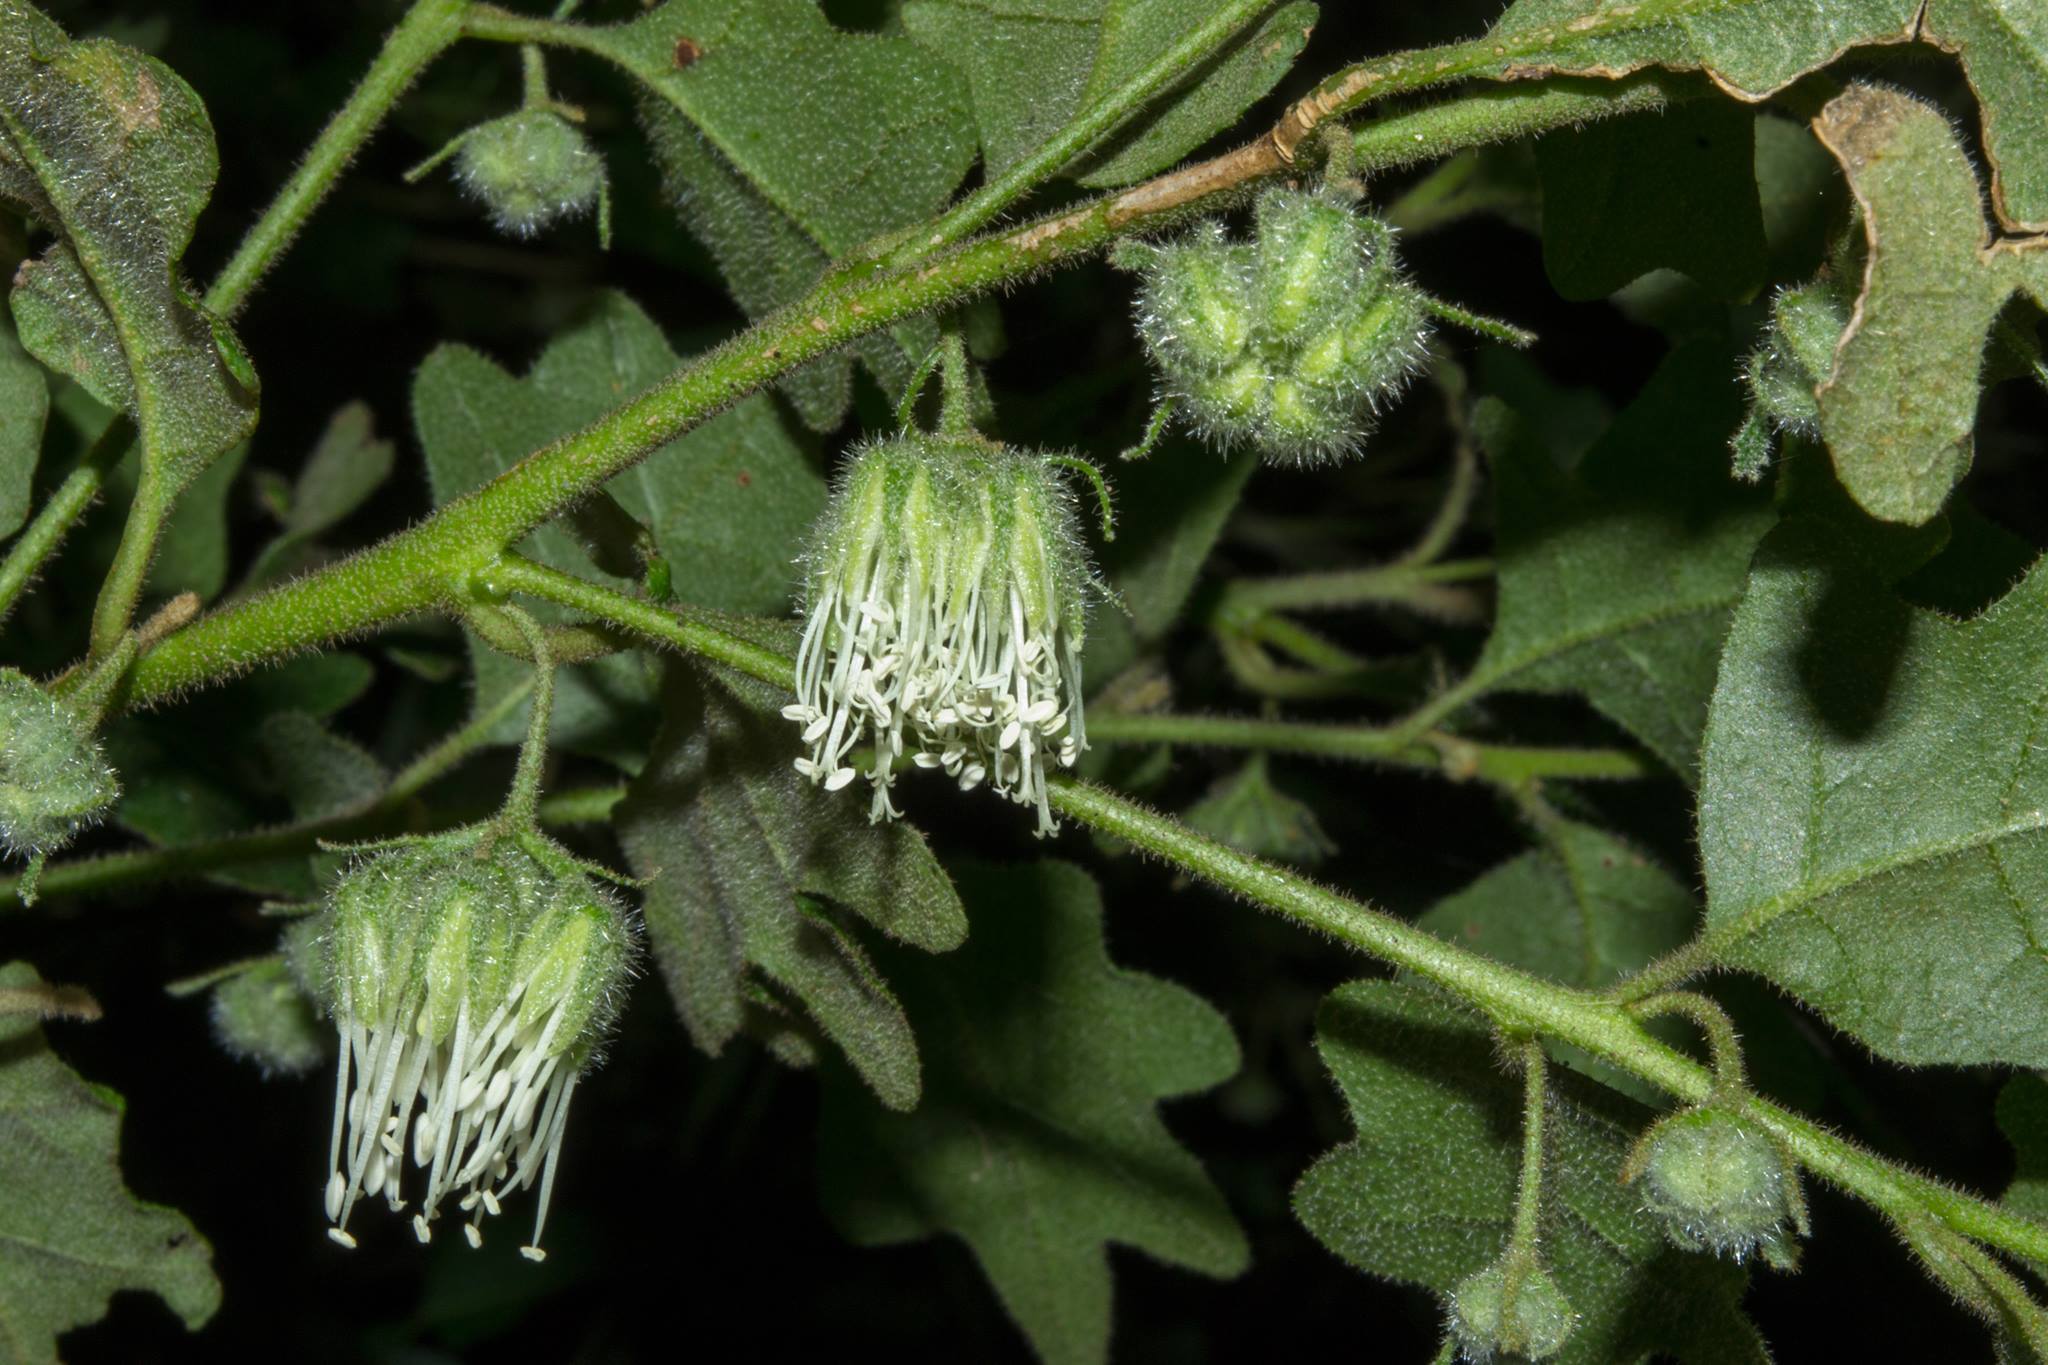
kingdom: Plantae
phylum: Tracheophyta
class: Magnoliopsida
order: Sapindales
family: Rutaceae
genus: Chorilaena
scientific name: Chorilaena quercifolia
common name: Wild hop
